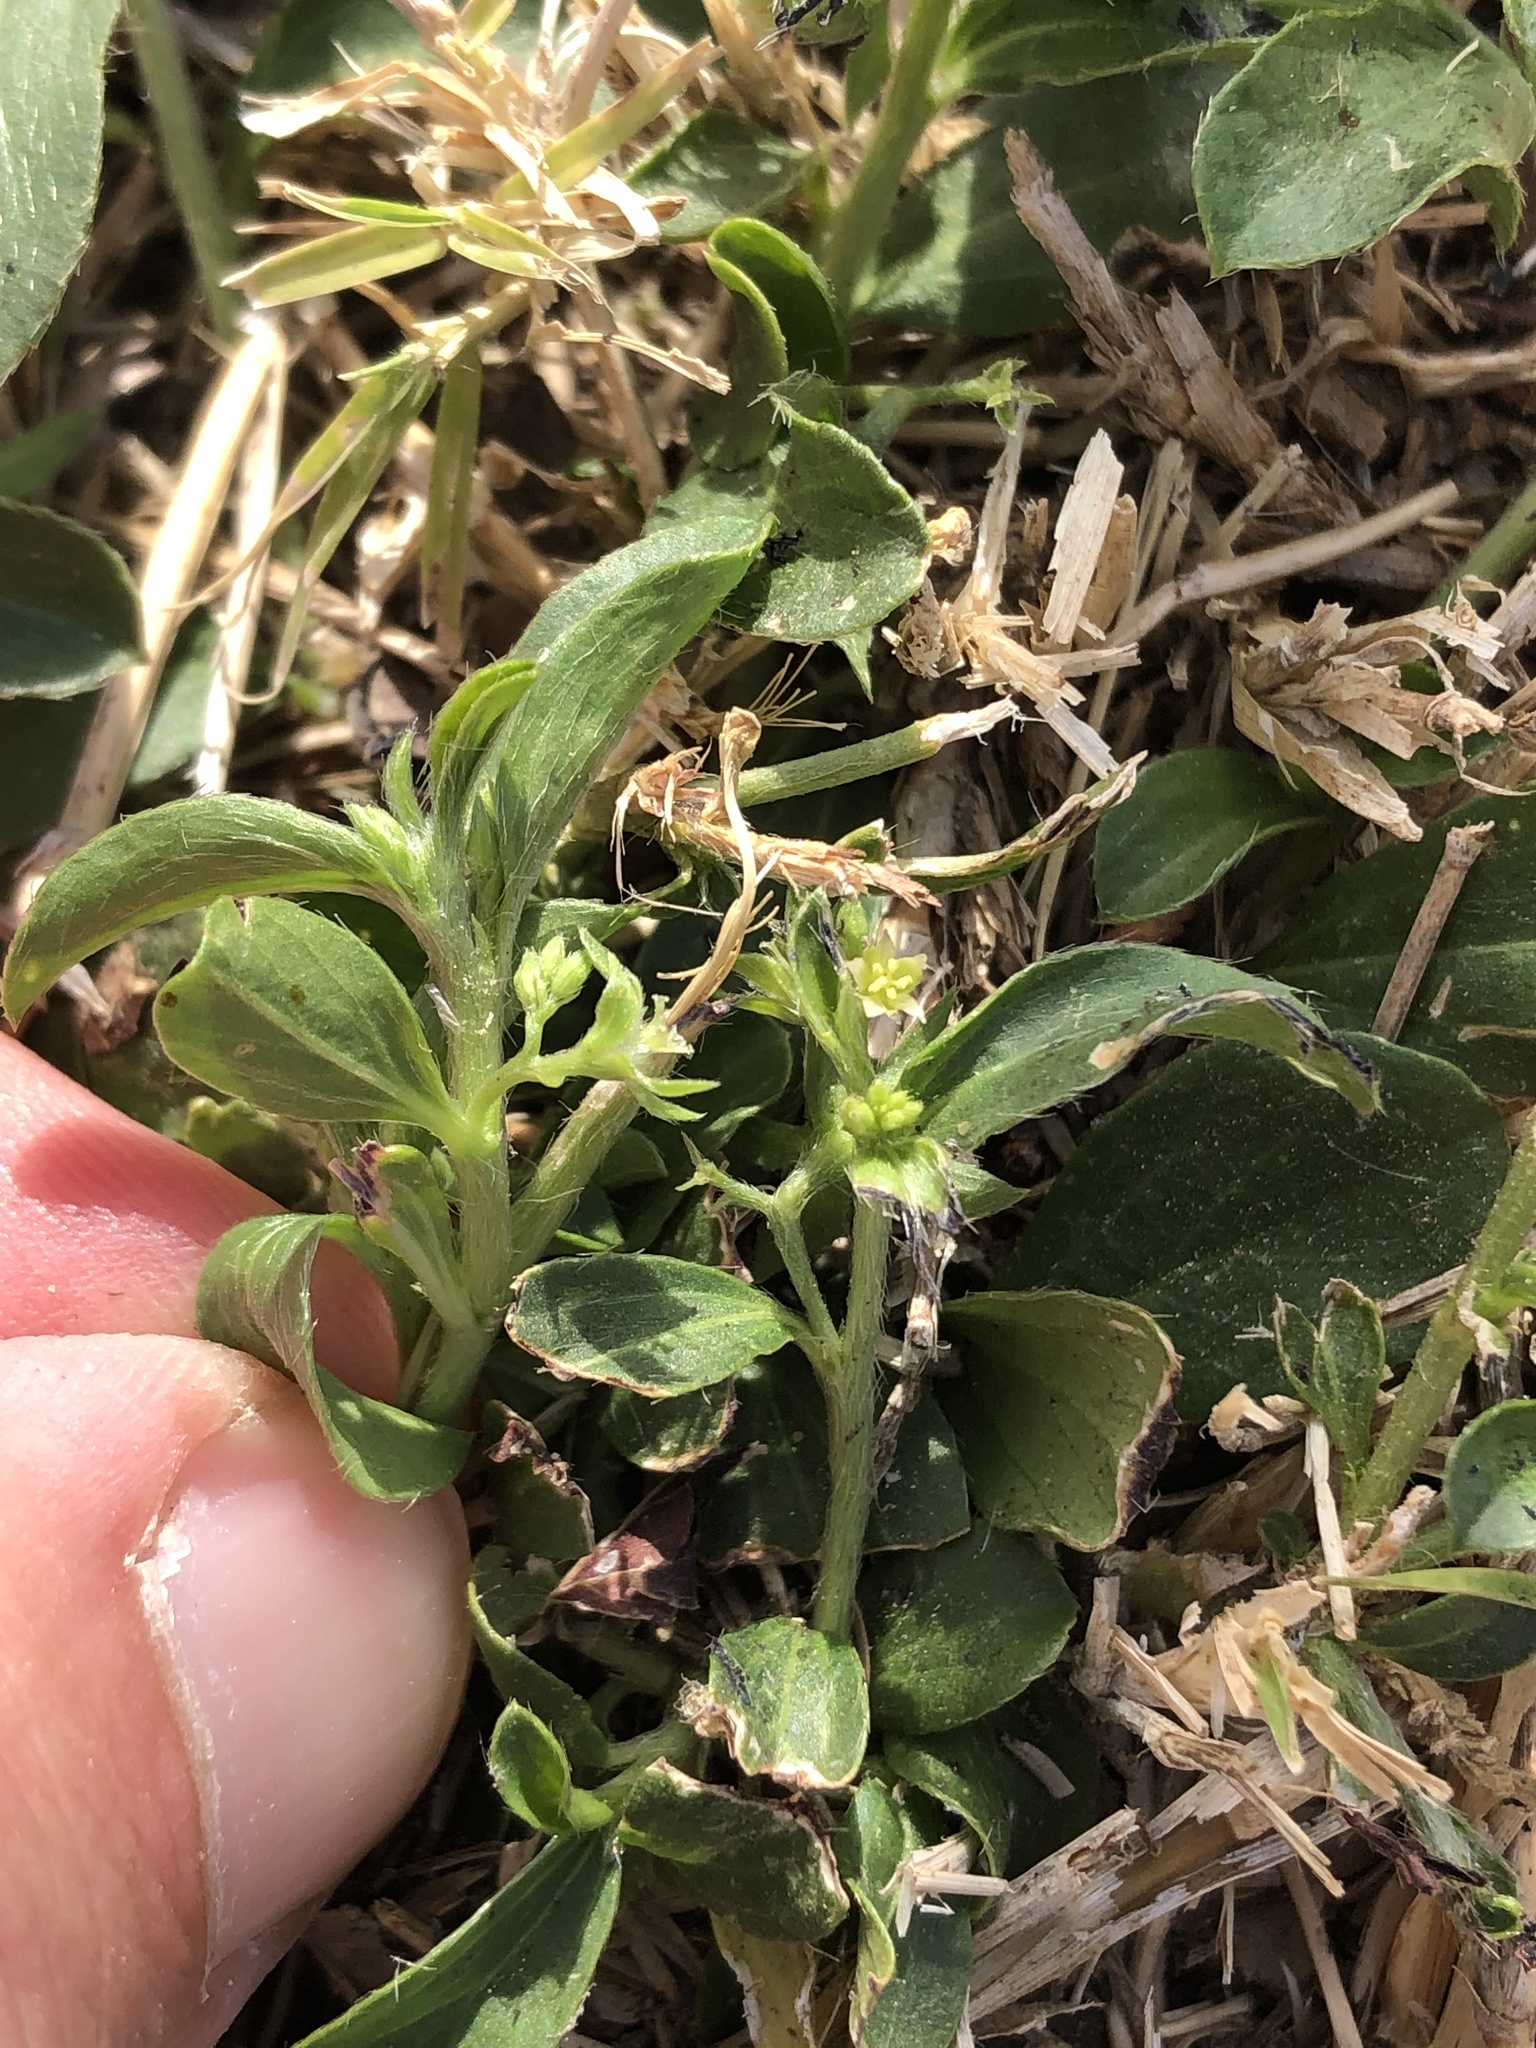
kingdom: Plantae
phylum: Tracheophyta
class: Magnoliopsida
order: Malpighiales
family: Euphorbiaceae
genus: Ditaxis
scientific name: Ditaxis humilis
